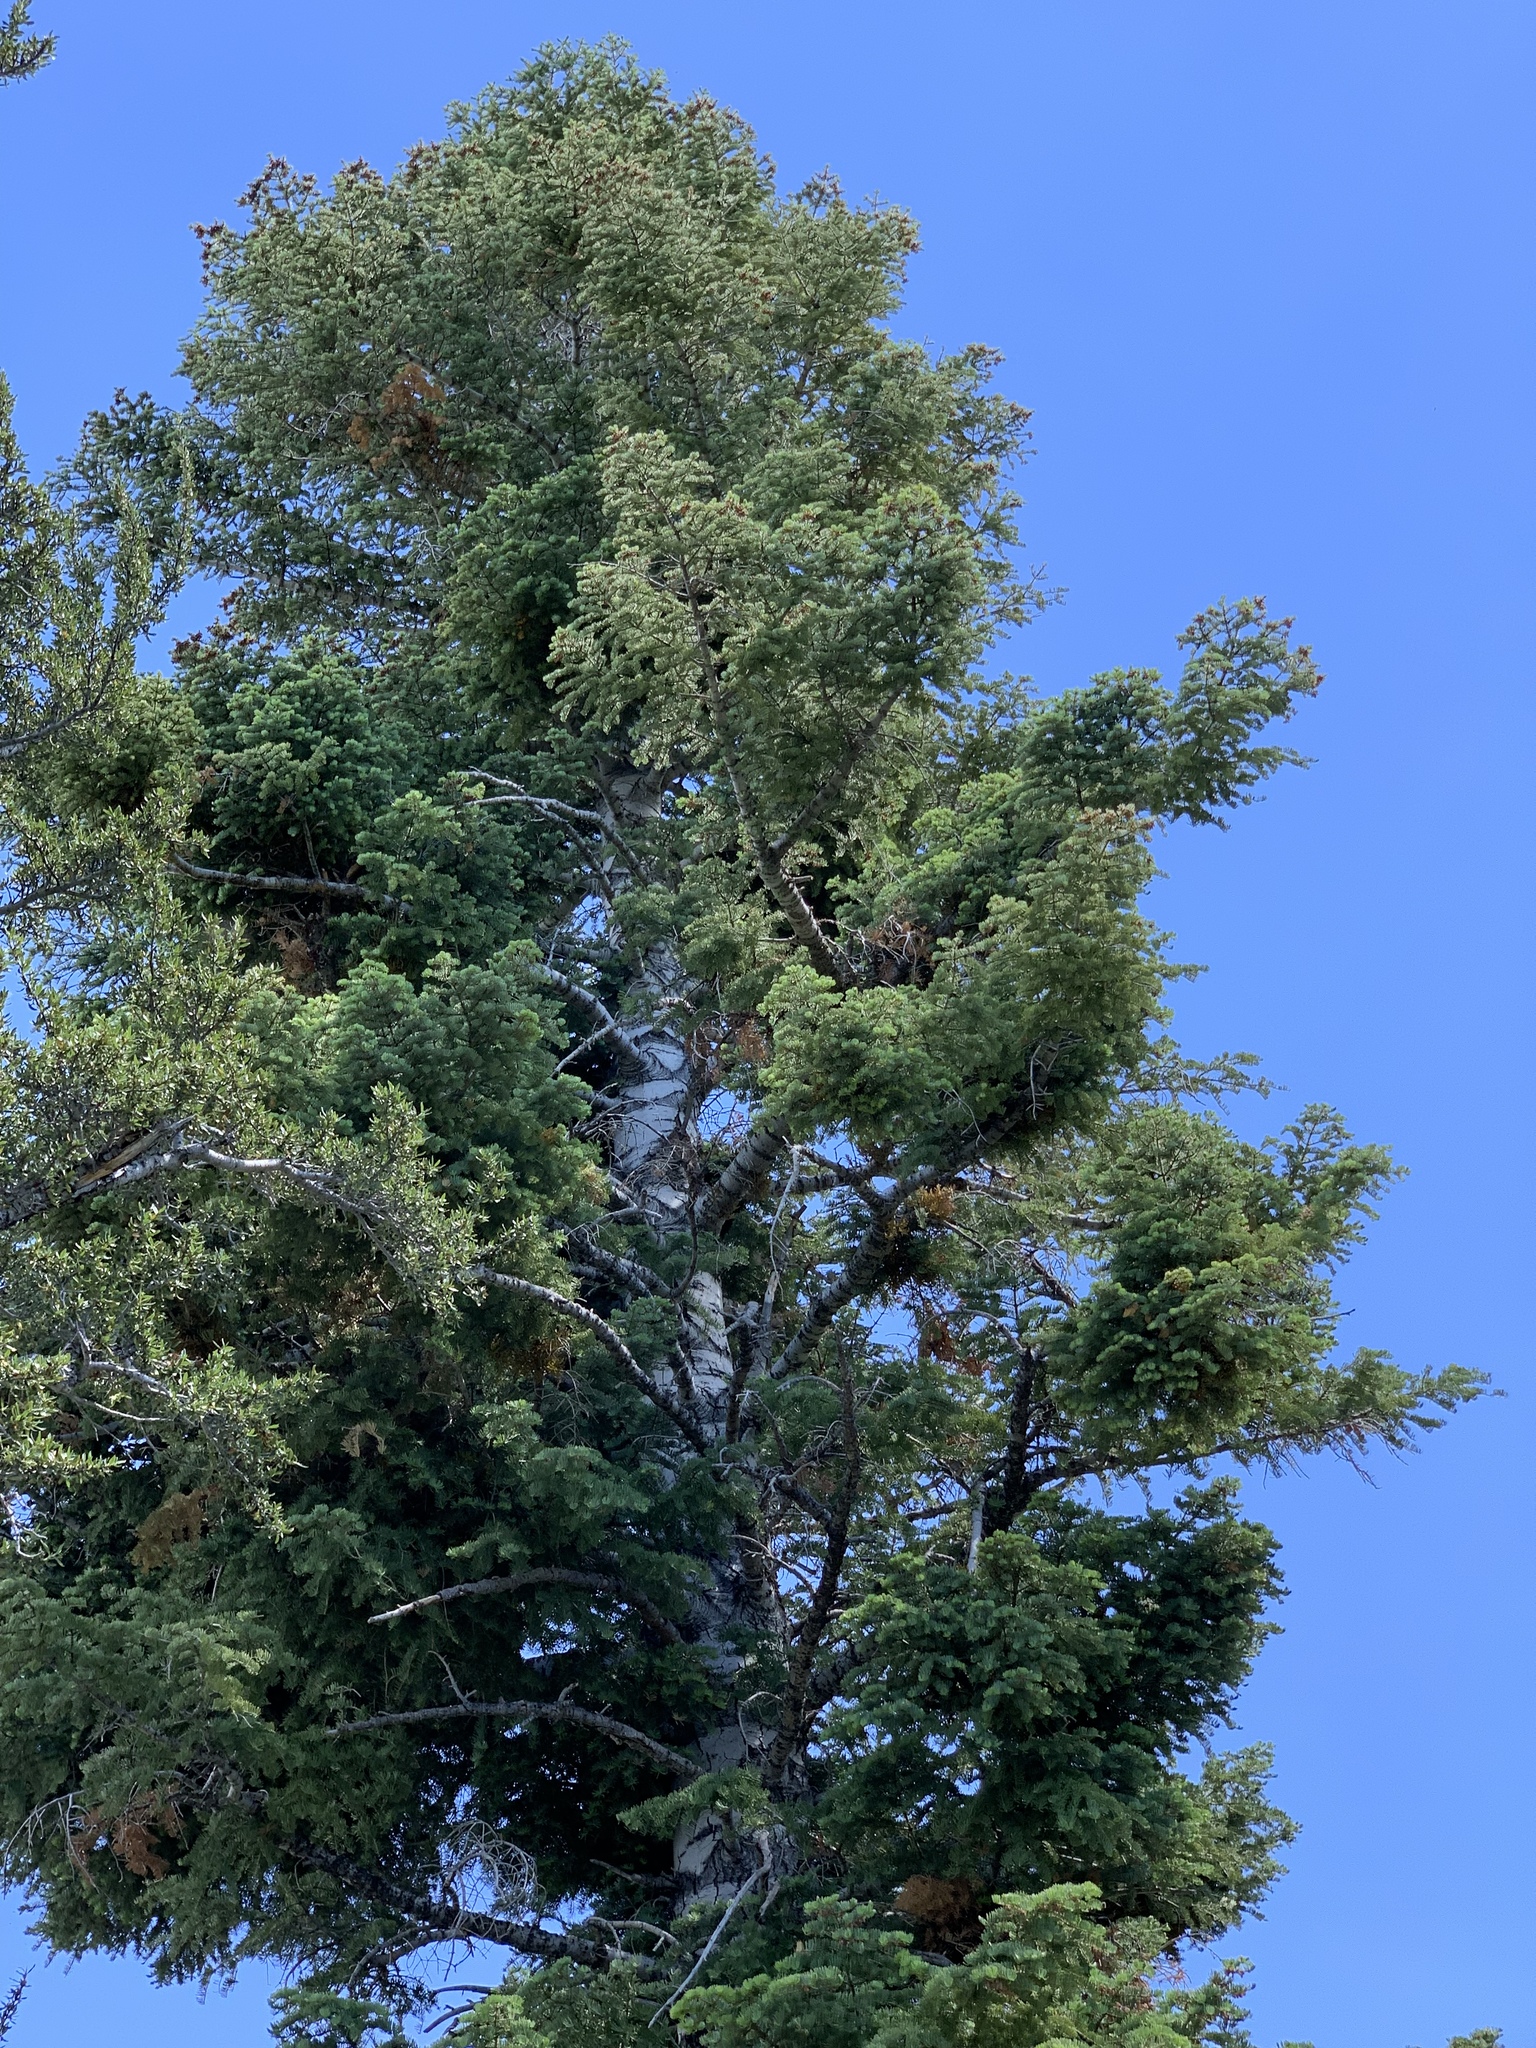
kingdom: Plantae
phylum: Tracheophyta
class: Pinopsida
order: Pinales
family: Pinaceae
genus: Abies
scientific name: Abies concolor
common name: Colorado fir
